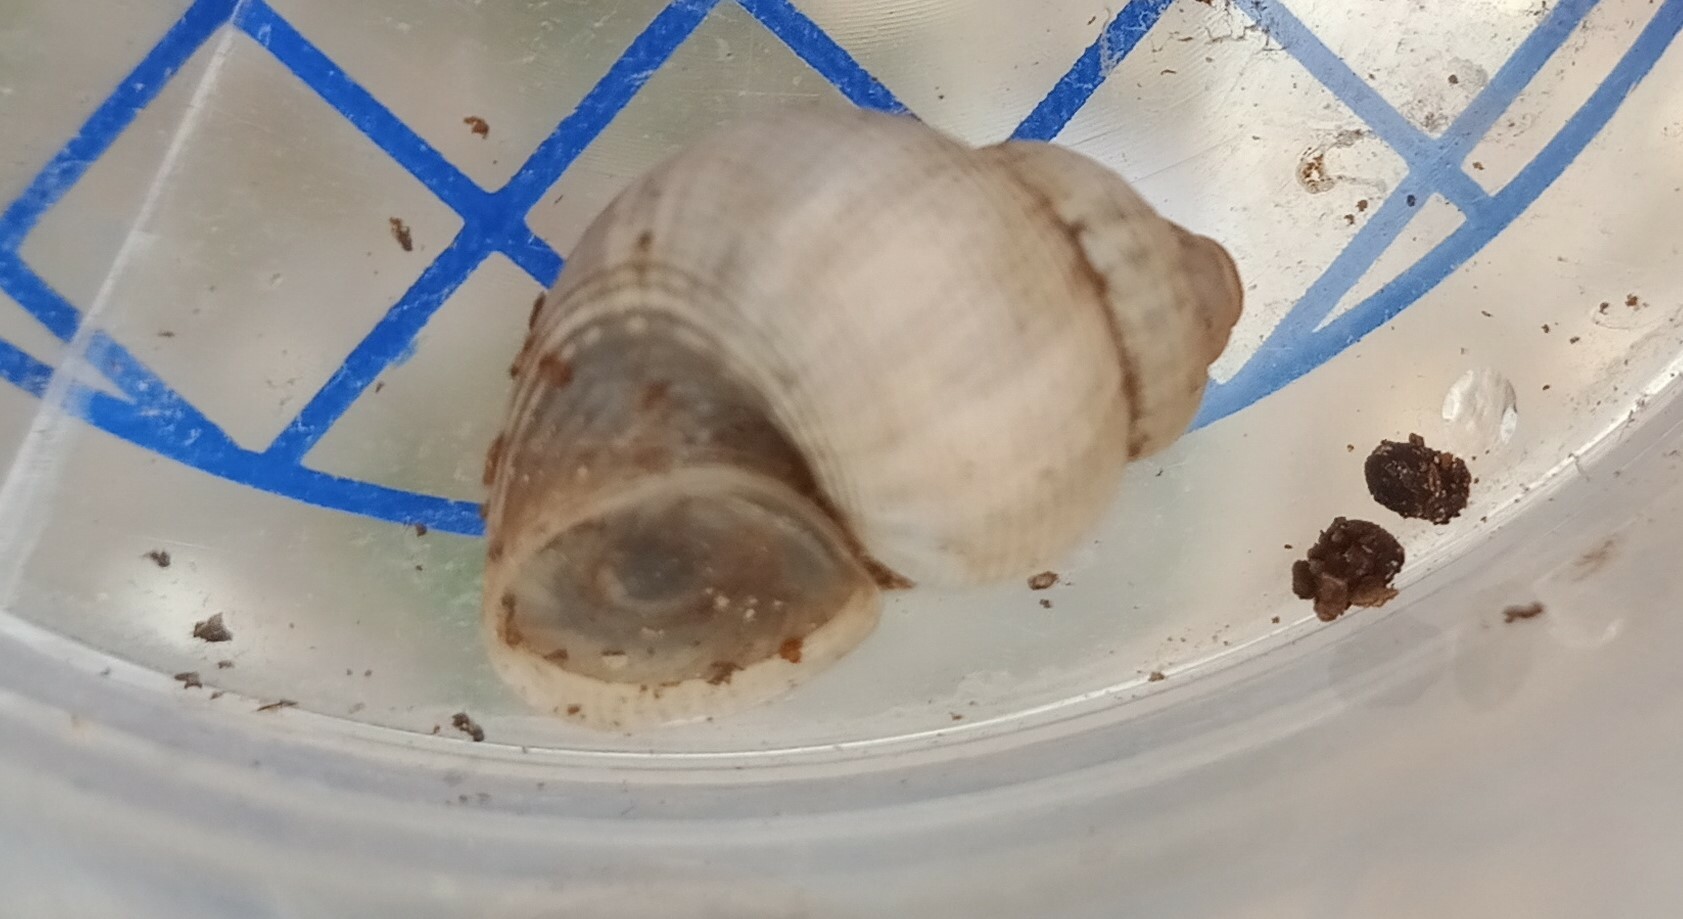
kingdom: Animalia
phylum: Mollusca
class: Gastropoda
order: Littorinimorpha
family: Pomatiidae
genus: Pomatias
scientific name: Pomatias elegans
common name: Red-mouthed snail
